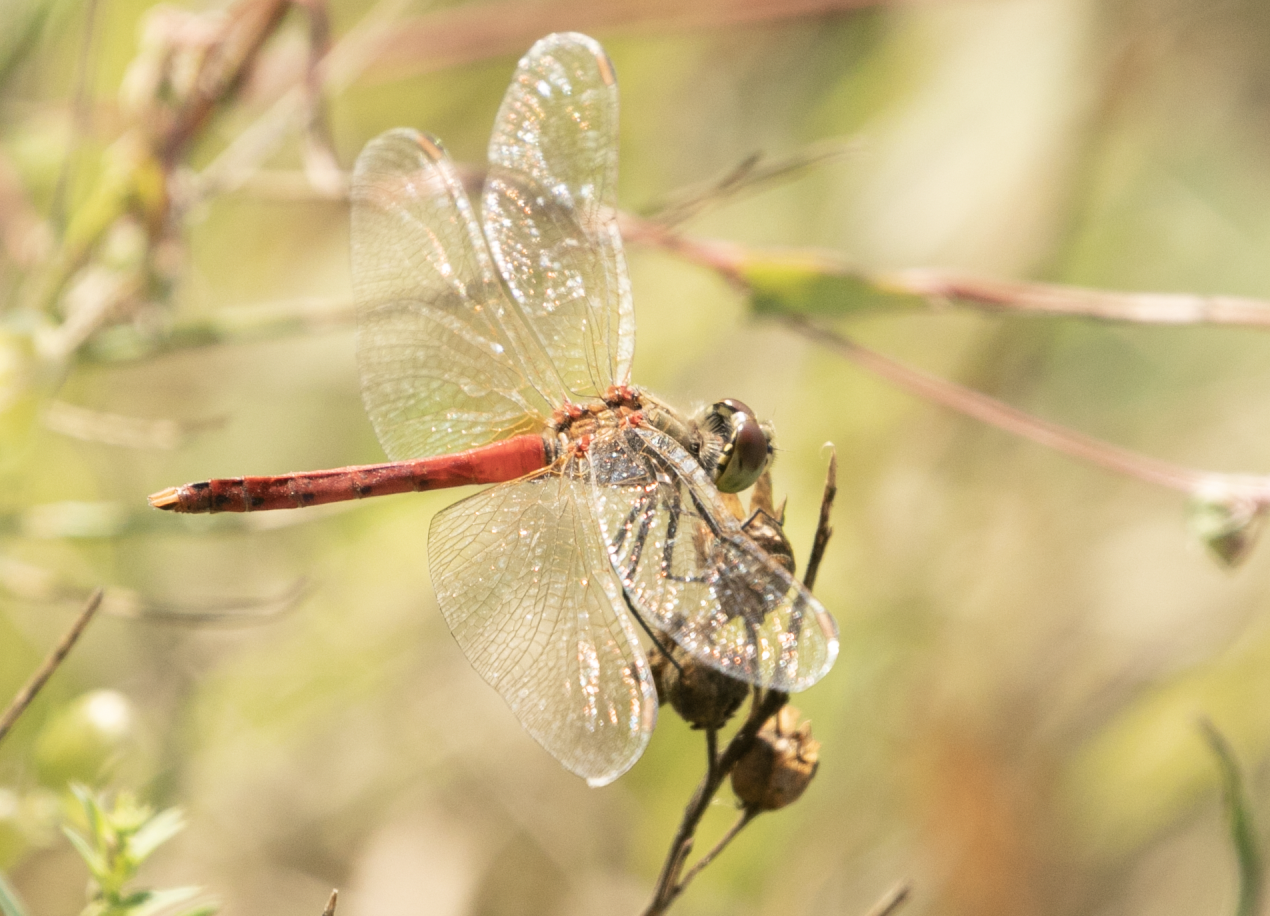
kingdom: Animalia
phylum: Arthropoda
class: Insecta
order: Odonata
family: Libellulidae
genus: Sympetrum
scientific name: Sympetrum depressiusculum
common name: Spotted darter
